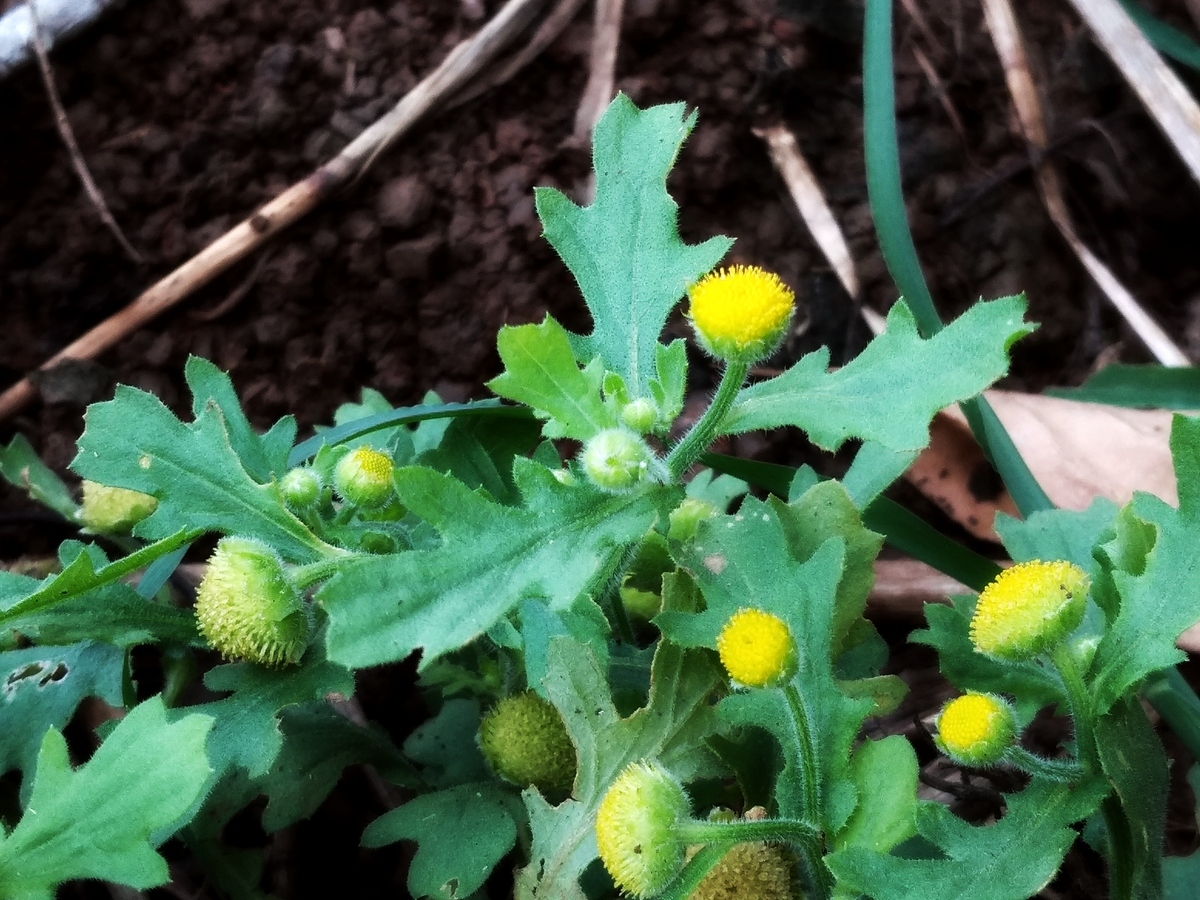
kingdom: Plantae
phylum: Tracheophyta
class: Magnoliopsida
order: Asterales
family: Asteraceae
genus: Grangea
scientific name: Grangea maderaspatana
